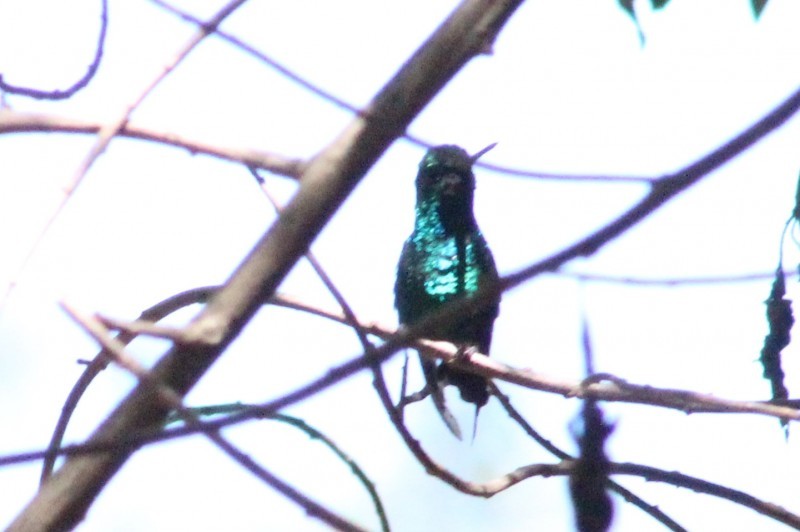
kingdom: Animalia
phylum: Chordata
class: Aves
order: Apodiformes
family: Trochilidae
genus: Chlorostilbon
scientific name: Chlorostilbon melanorhynchus
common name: Western emerald
